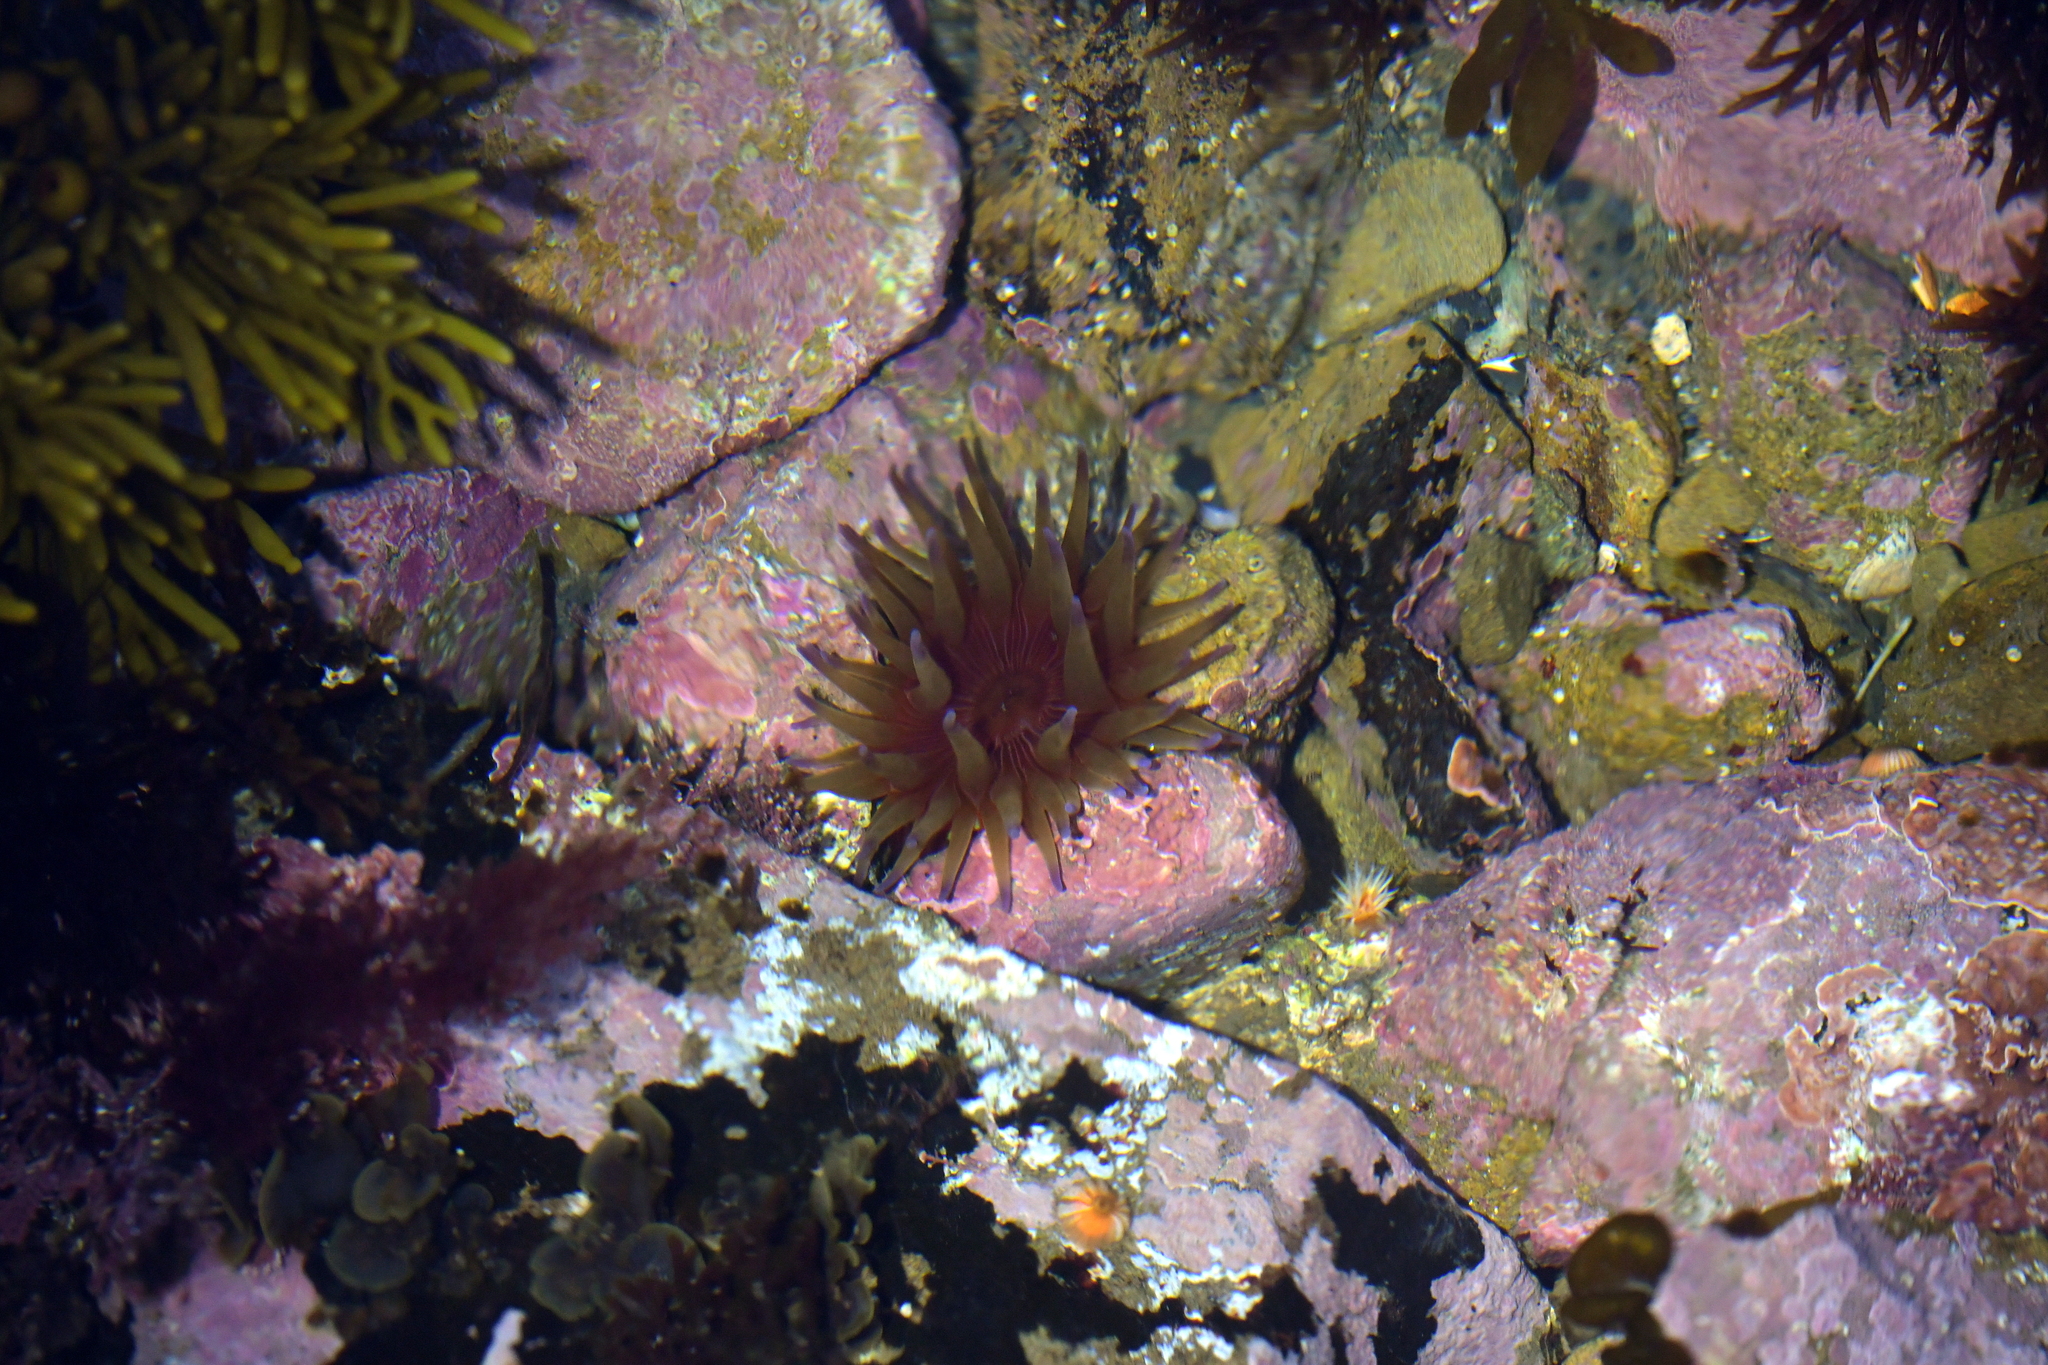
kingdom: Animalia
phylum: Cnidaria
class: Anthozoa
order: Actiniaria
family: Actiniidae
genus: Epiactis
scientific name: Epiactis thompsoni
